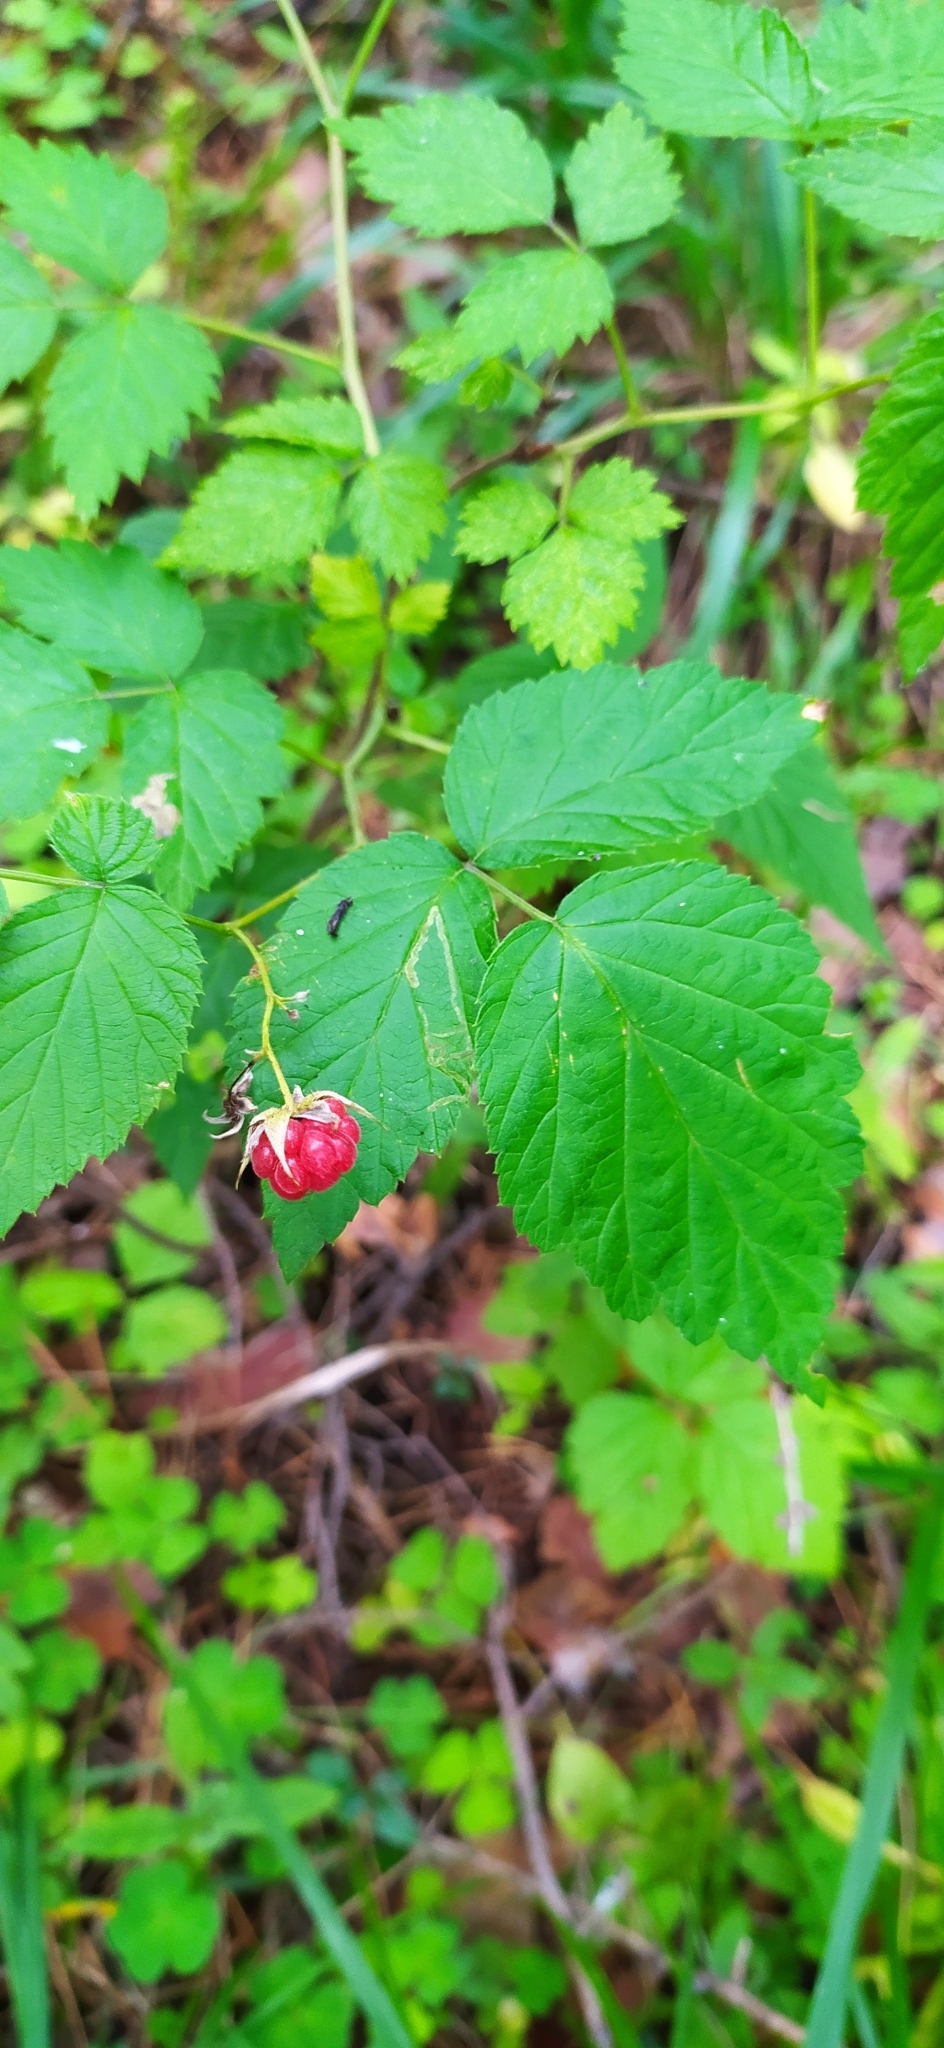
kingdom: Plantae
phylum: Tracheophyta
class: Magnoliopsida
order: Rosales
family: Rosaceae
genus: Rubus
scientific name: Rubus idaeus
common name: Raspberry
